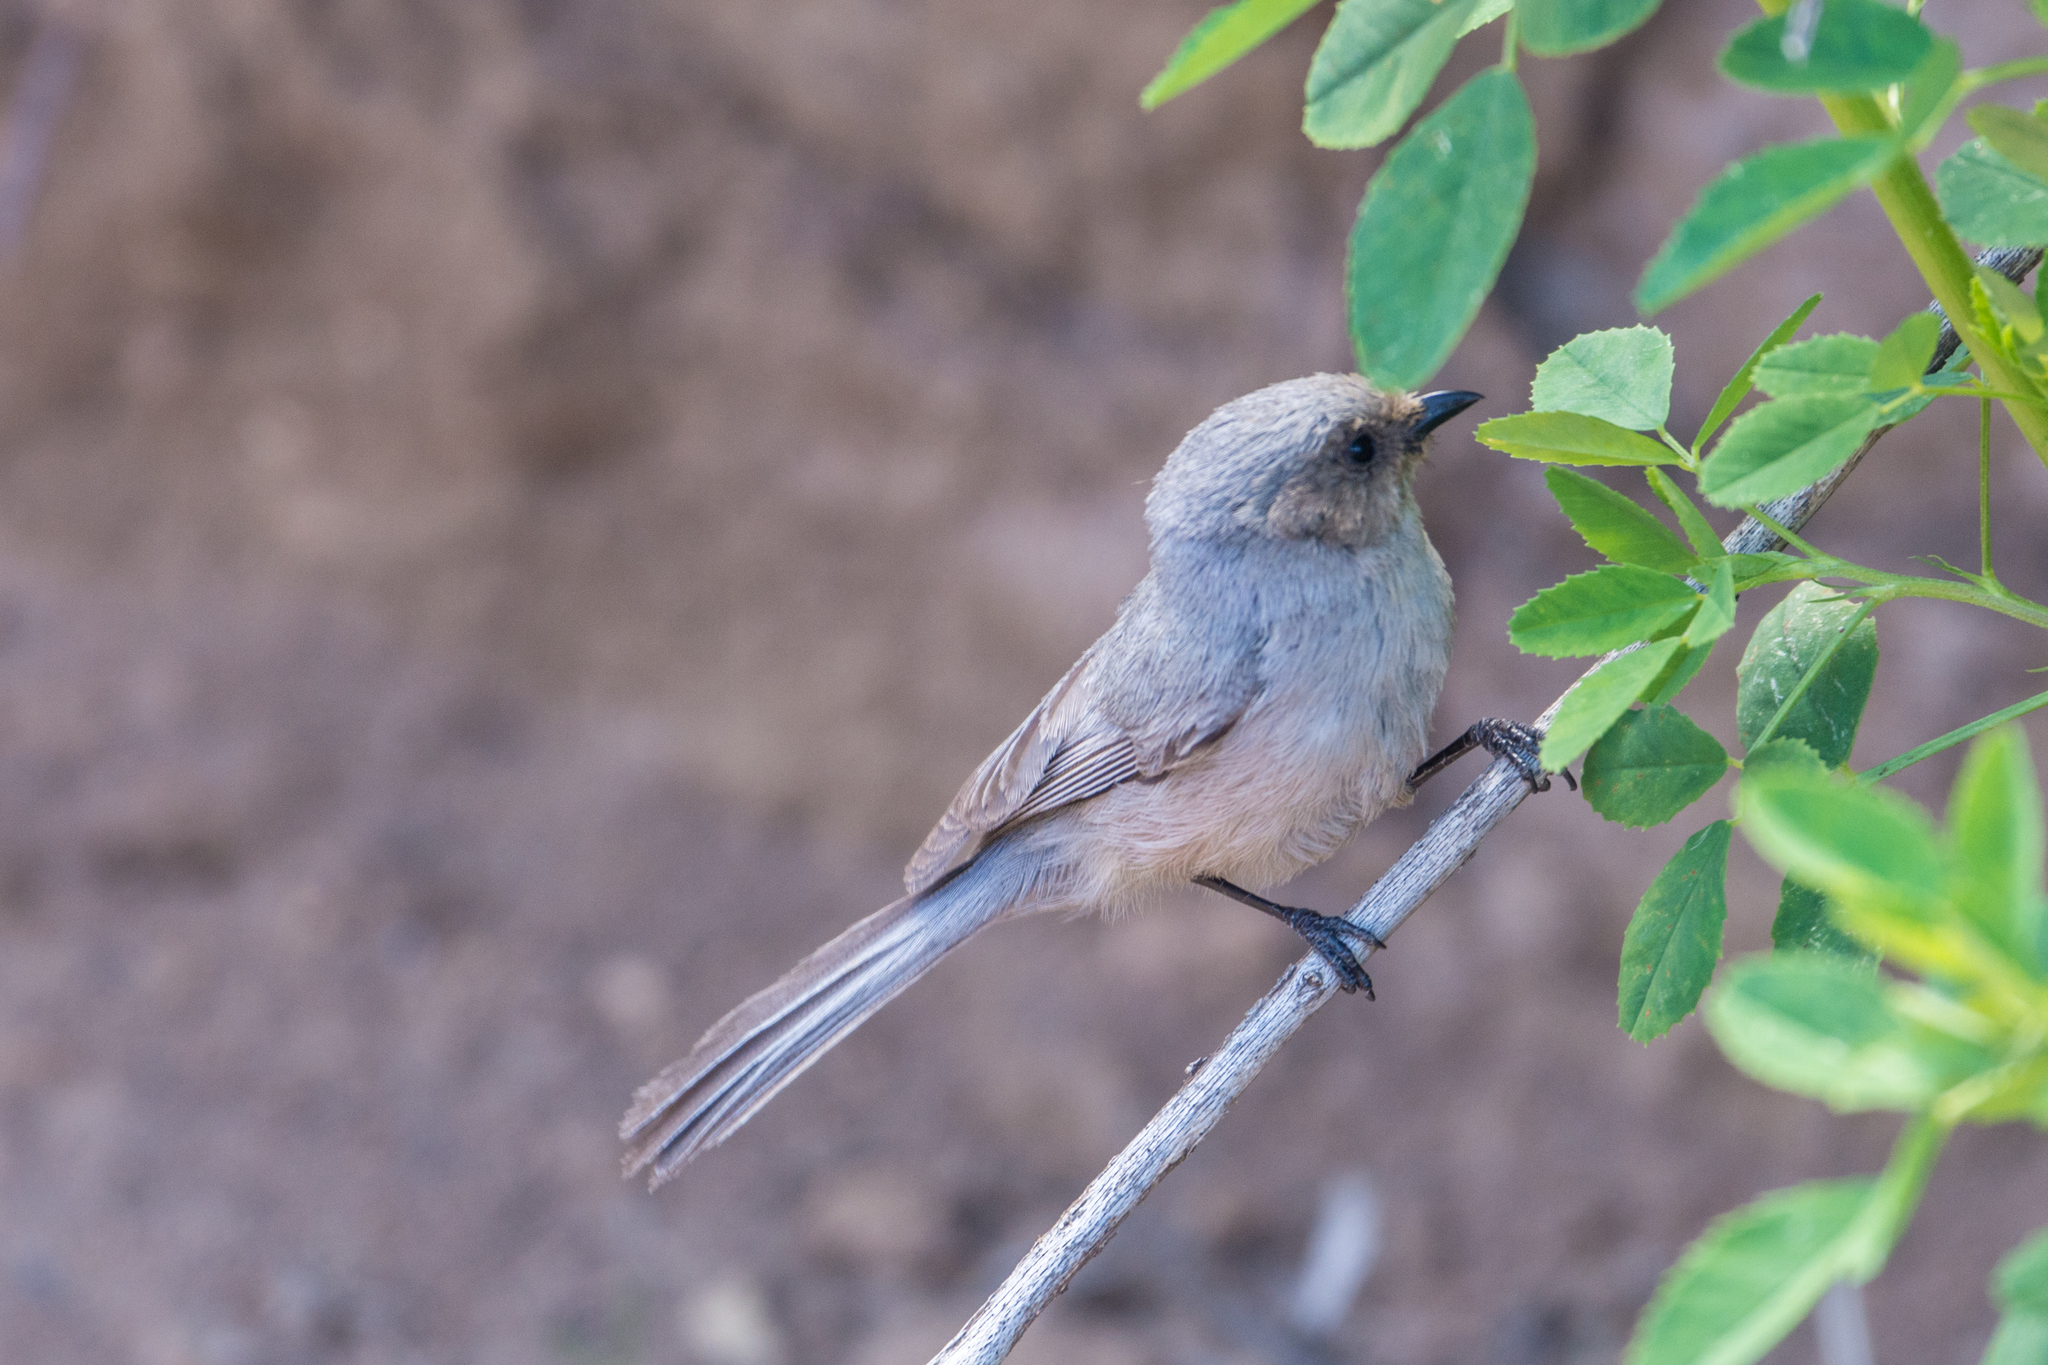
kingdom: Animalia
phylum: Chordata
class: Aves
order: Passeriformes
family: Aegithalidae
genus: Psaltriparus
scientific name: Psaltriparus minimus
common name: American bushtit
